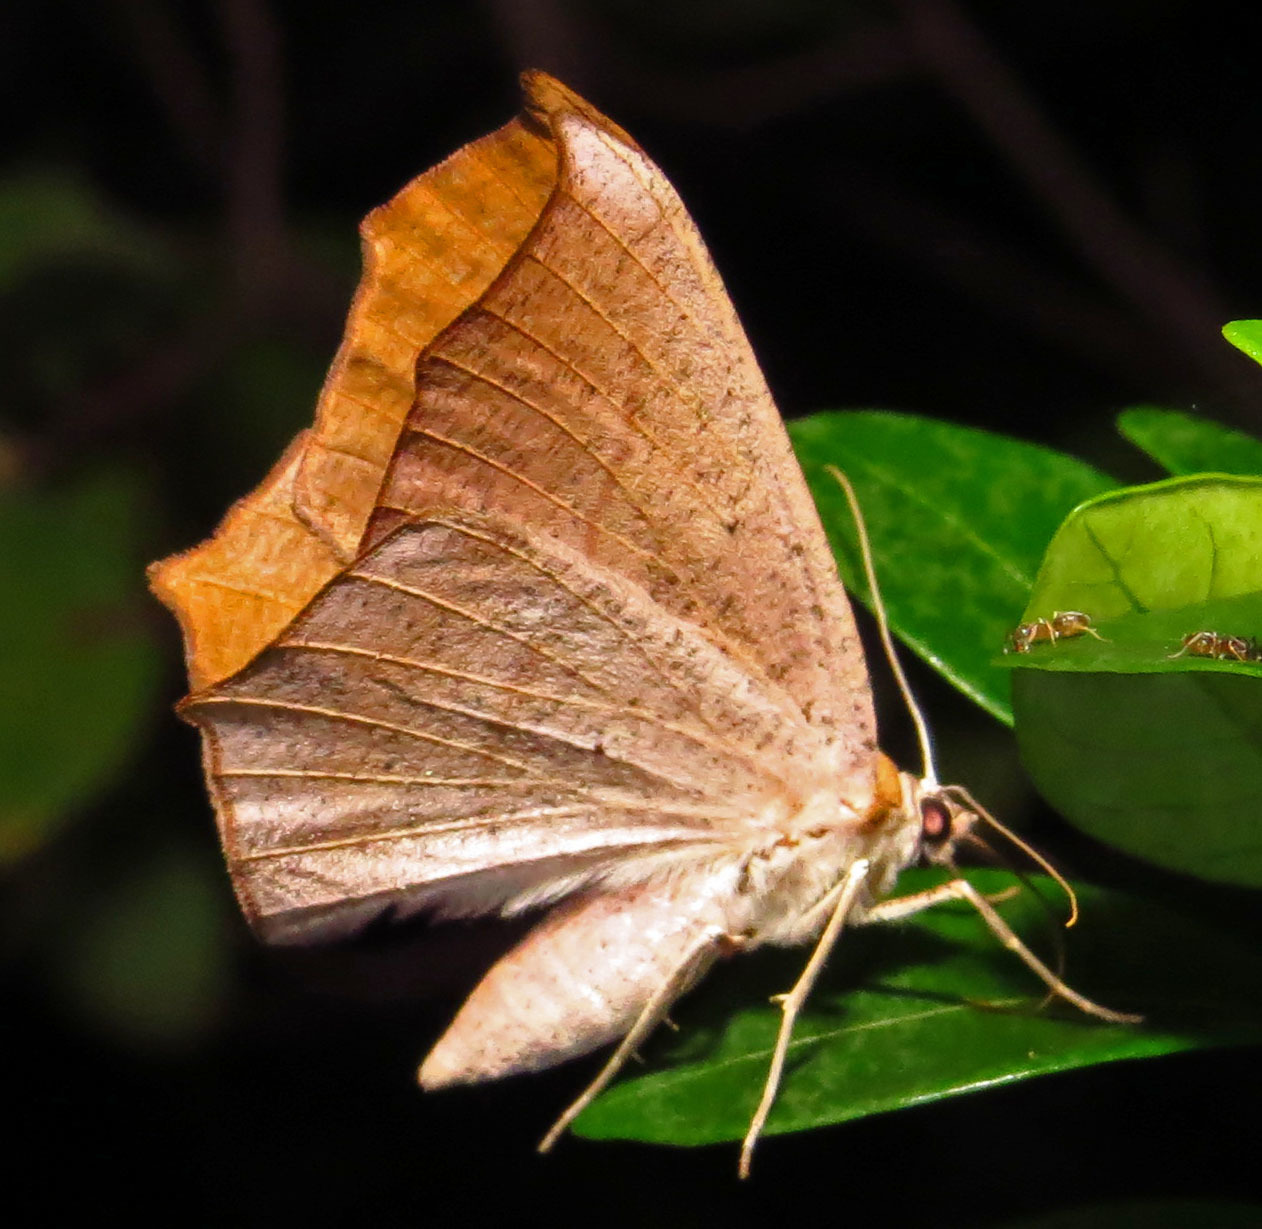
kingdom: Animalia
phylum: Arthropoda
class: Insecta
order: Lepidoptera
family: Geometridae
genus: Prochoerodes
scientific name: Prochoerodes lineola
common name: Large maple spanworm
